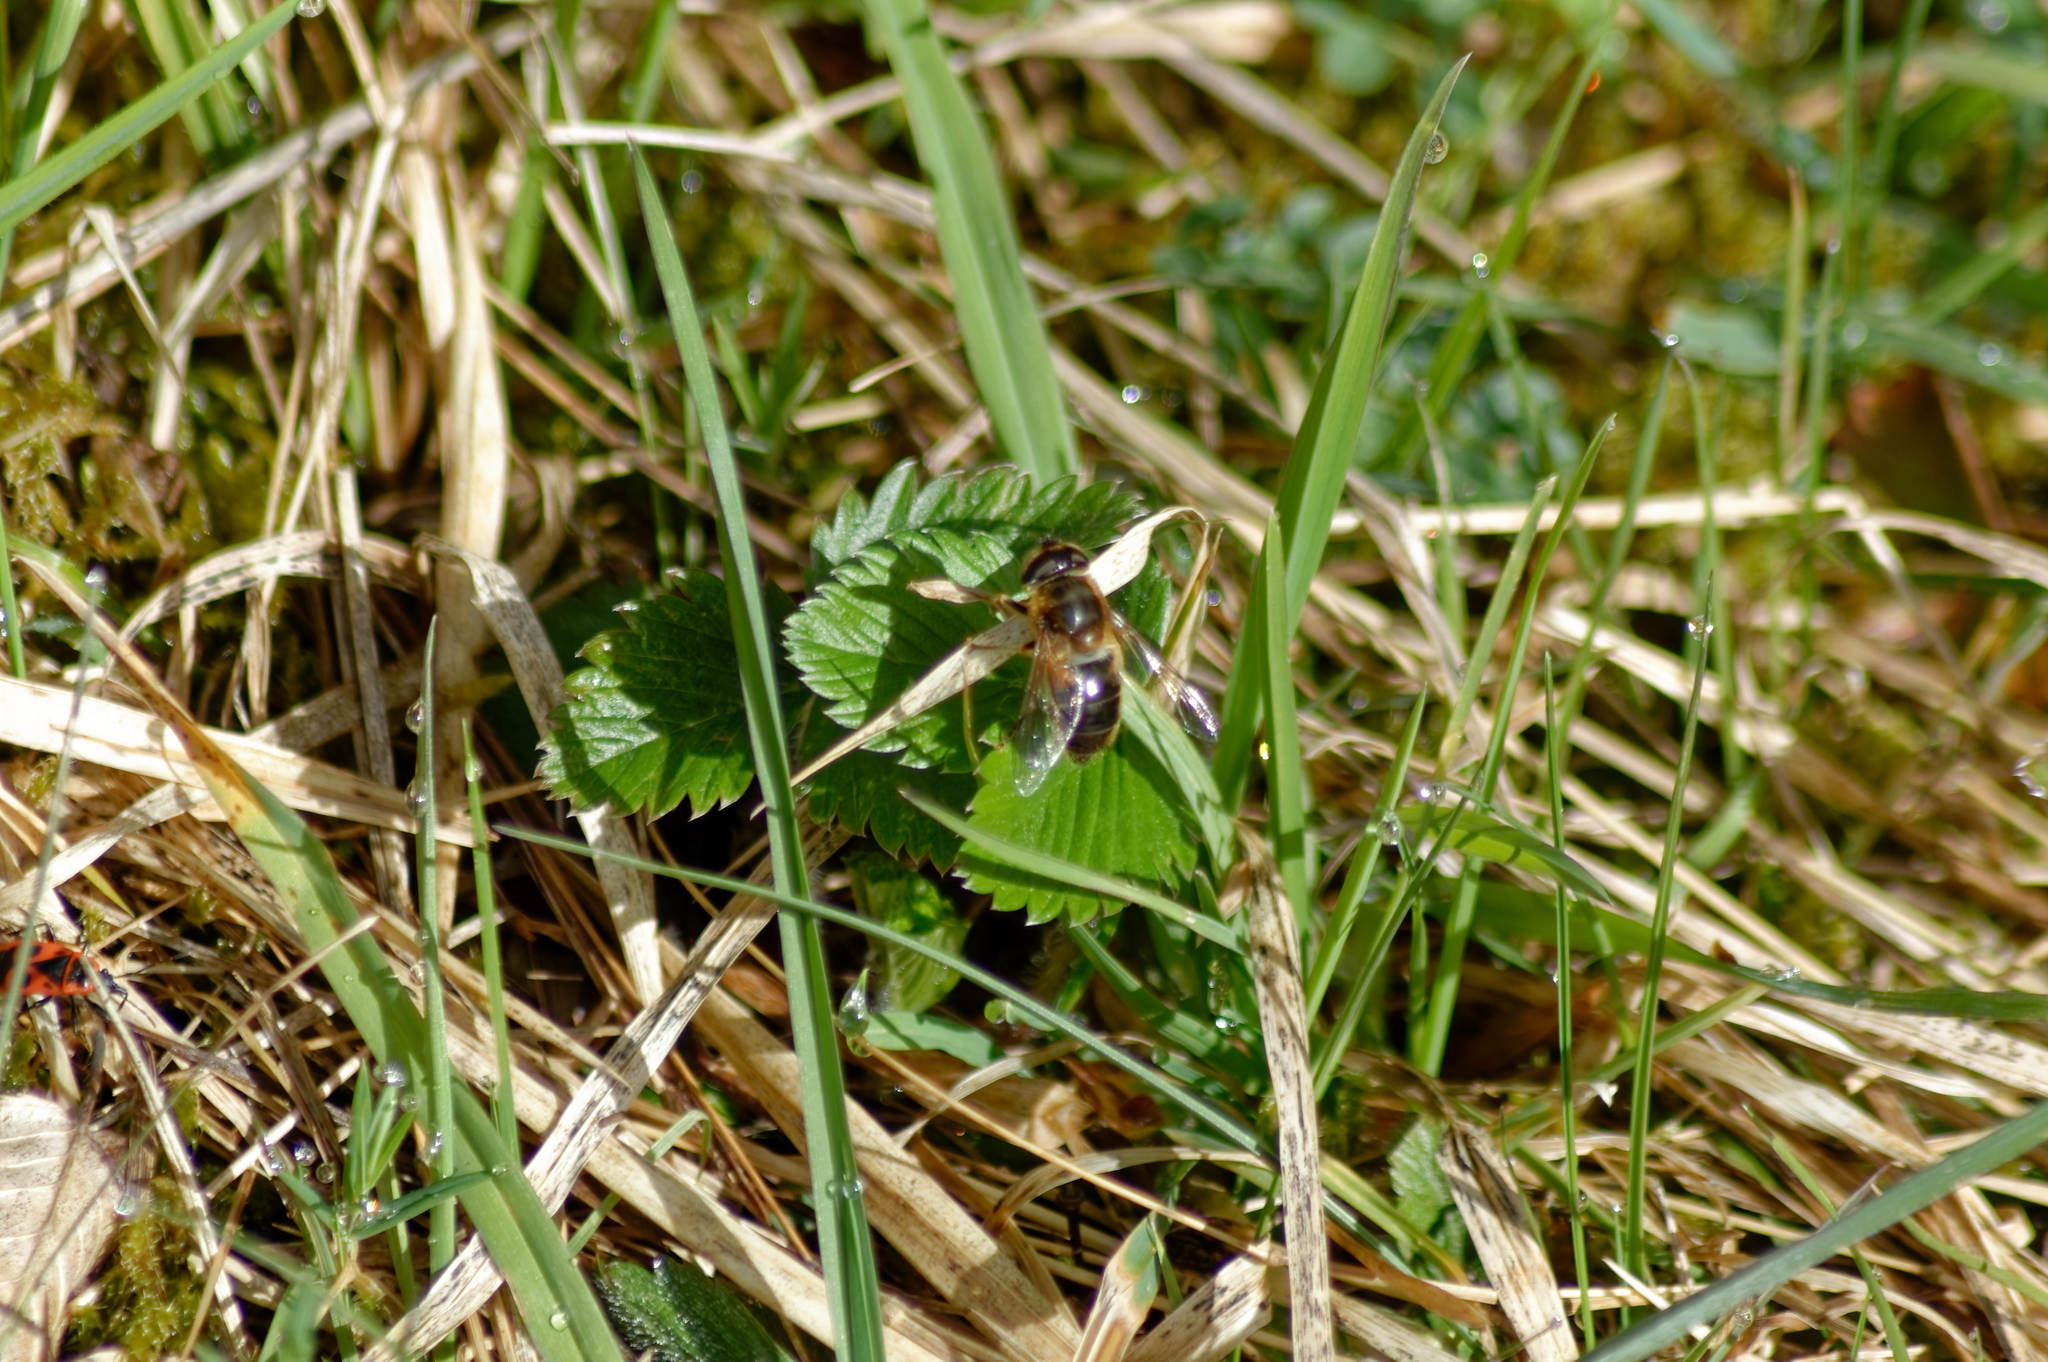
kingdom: Animalia
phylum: Arthropoda
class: Insecta
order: Diptera
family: Syrphidae
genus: Eristalis
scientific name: Eristalis
